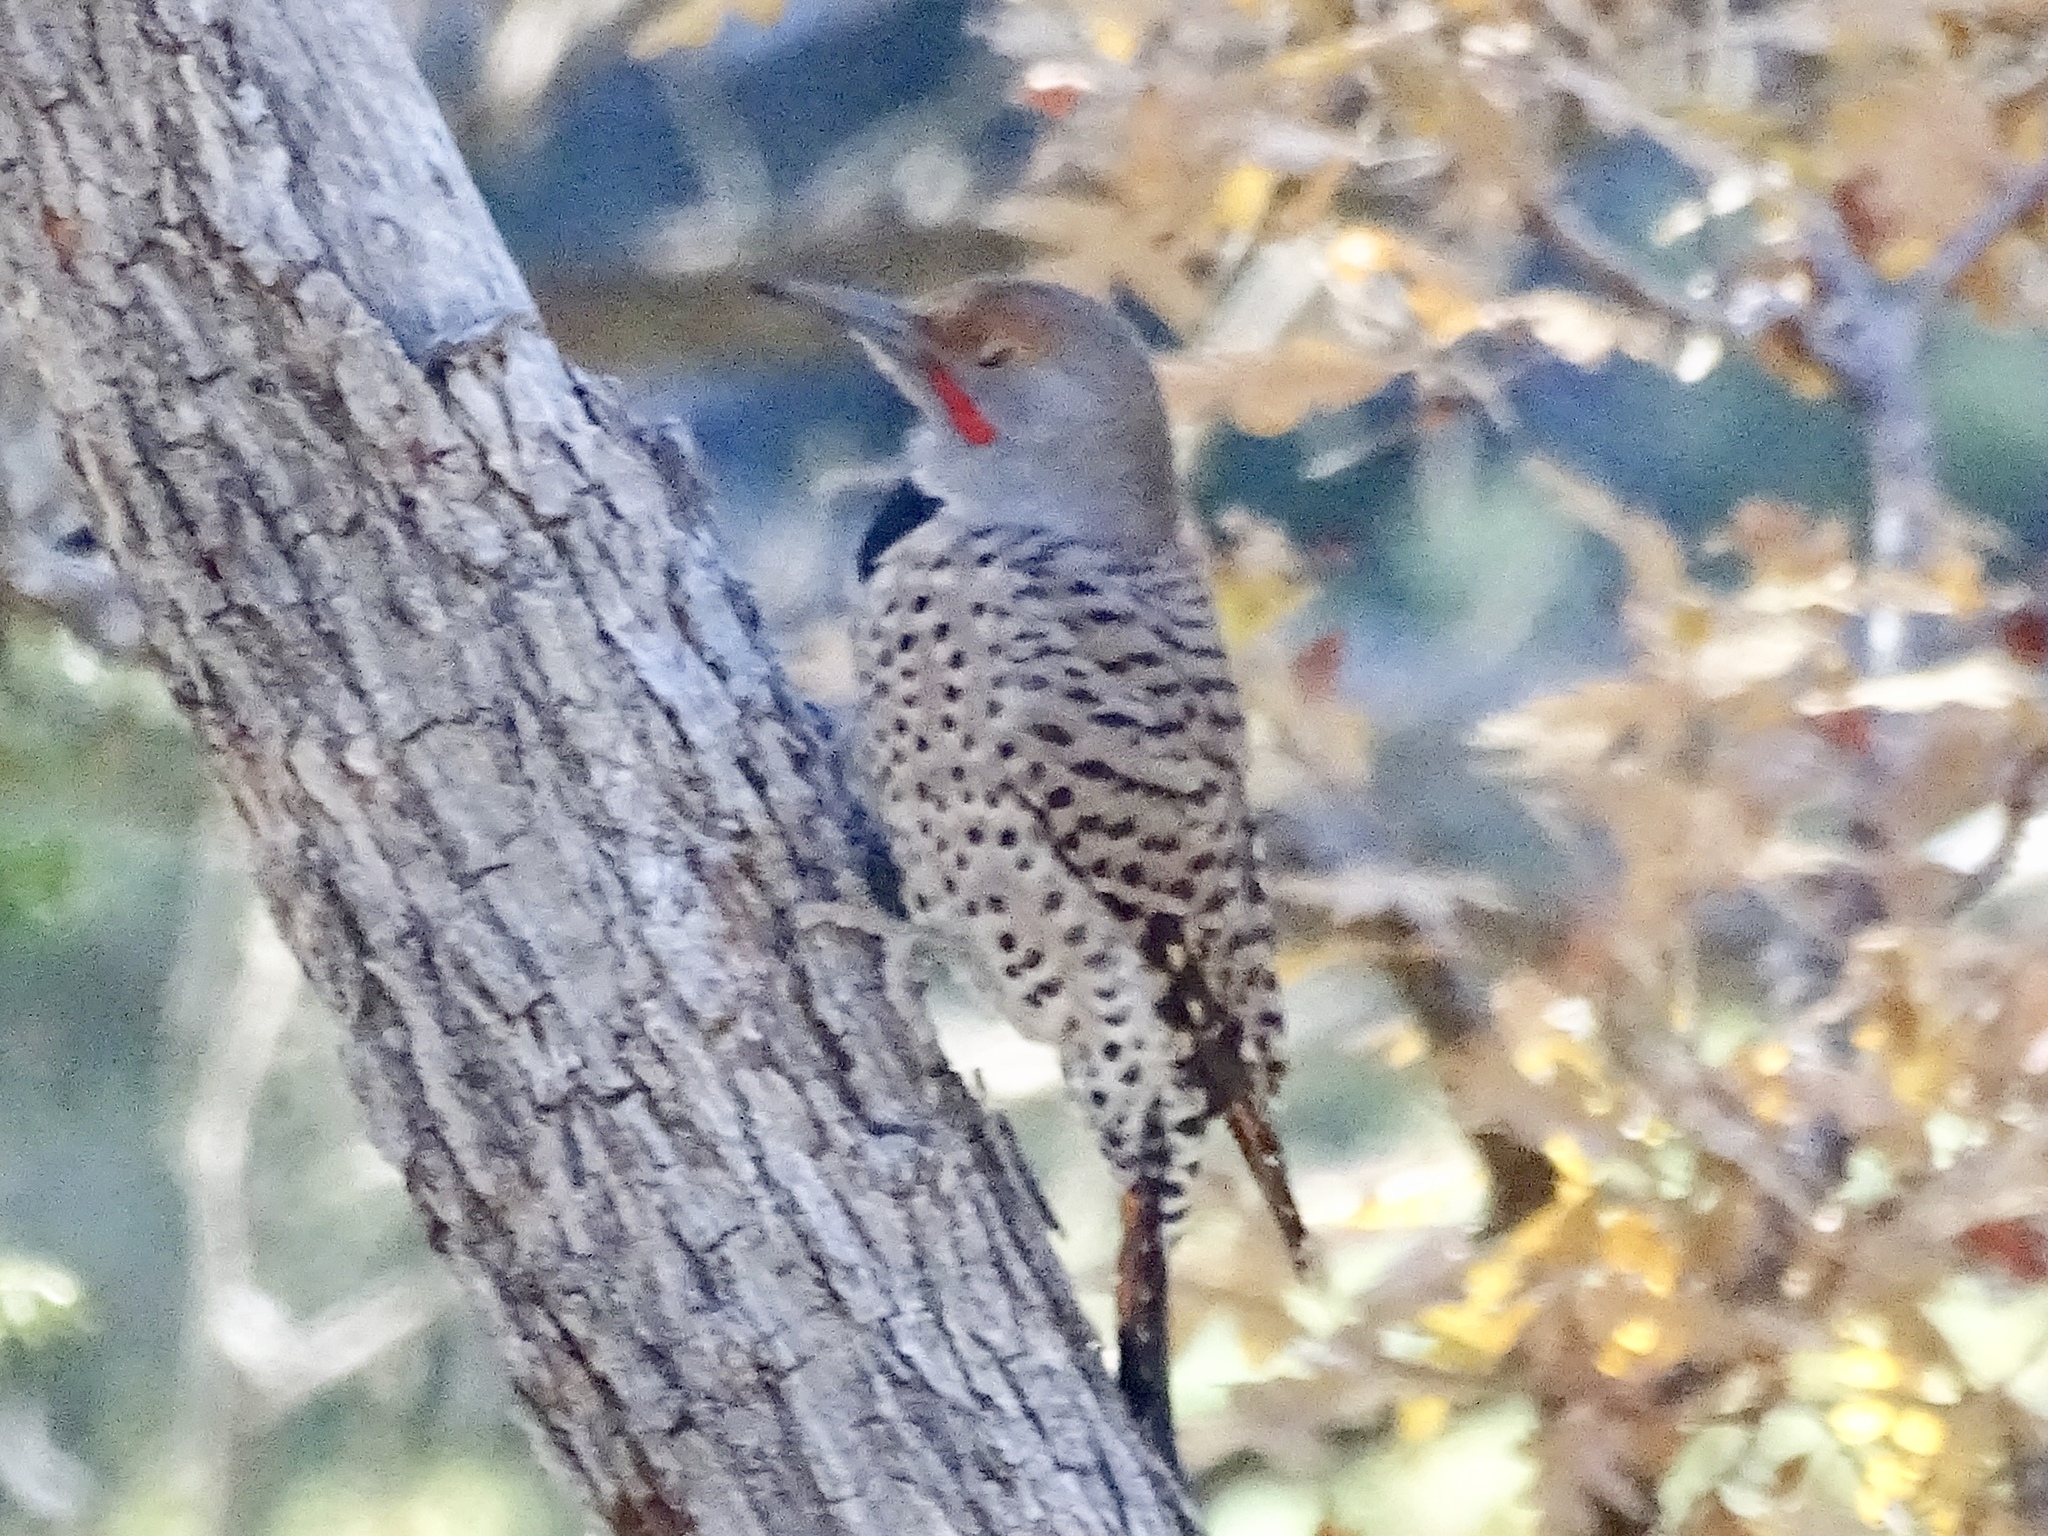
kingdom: Animalia
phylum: Chordata
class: Aves
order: Piciformes
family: Picidae
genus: Colaptes
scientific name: Colaptes auratus
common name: Northern flicker
